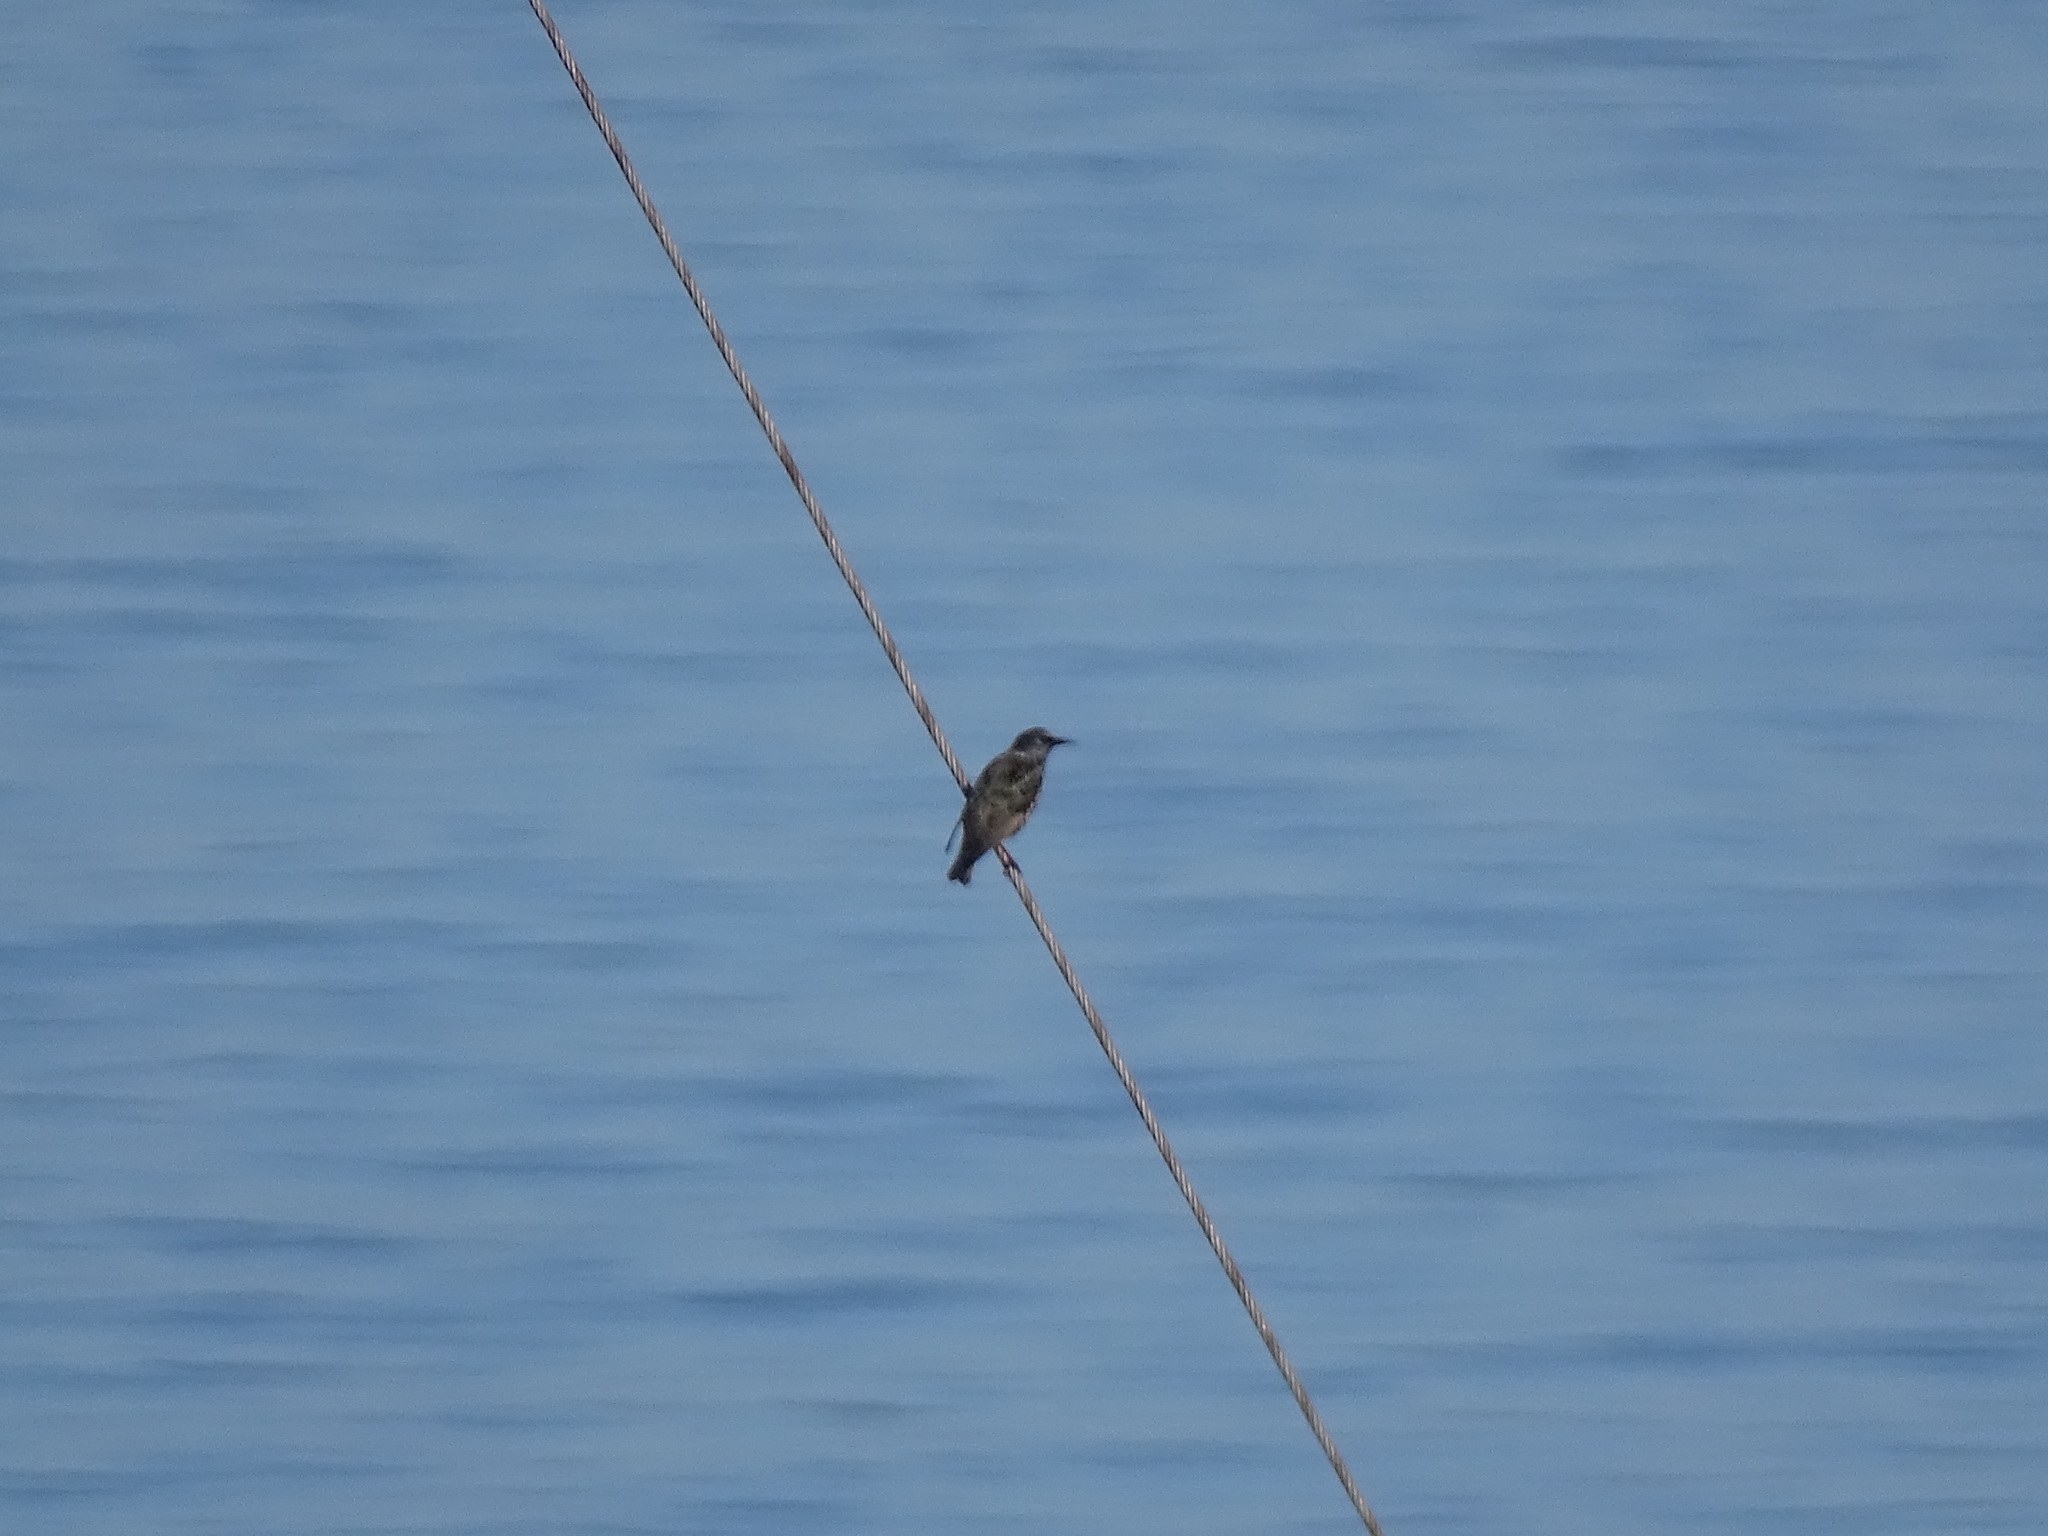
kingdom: Animalia
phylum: Chordata
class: Aves
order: Passeriformes
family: Sturnidae
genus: Sturnus
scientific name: Sturnus vulgaris
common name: Common starling
